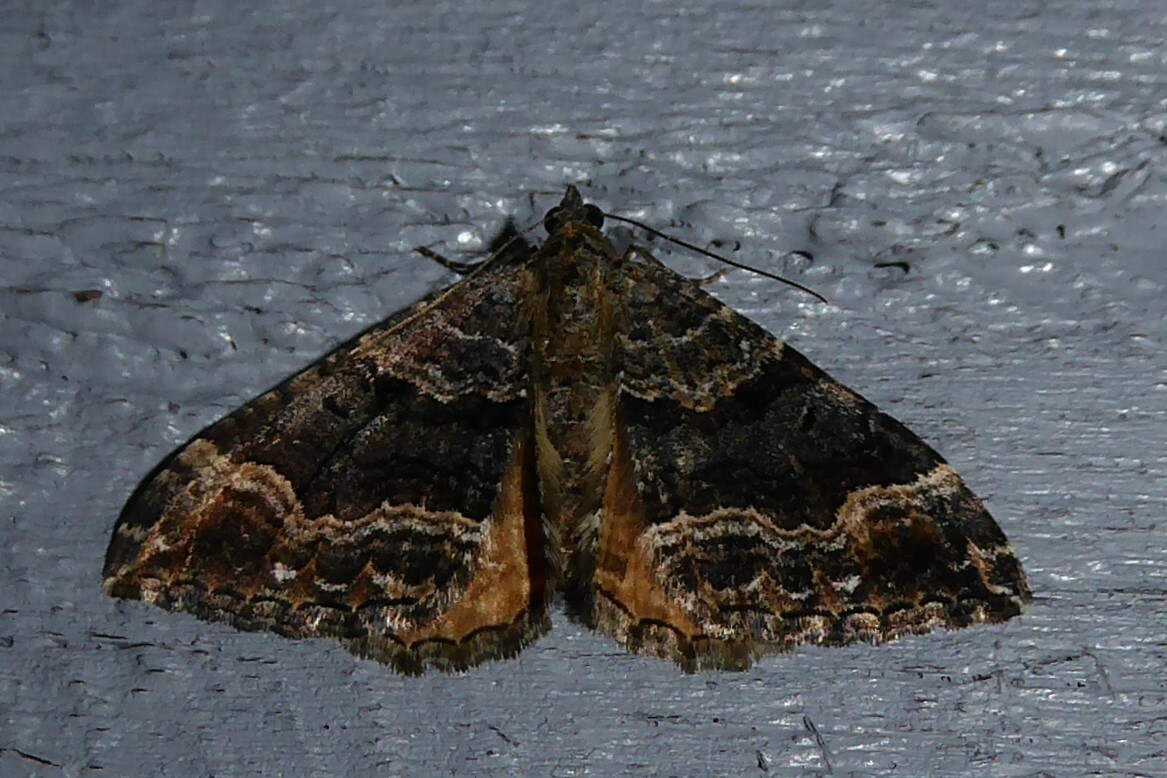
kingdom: Animalia
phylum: Arthropoda
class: Insecta
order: Lepidoptera
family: Geometridae
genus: Hydriomena
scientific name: Hydriomena deltoidata
